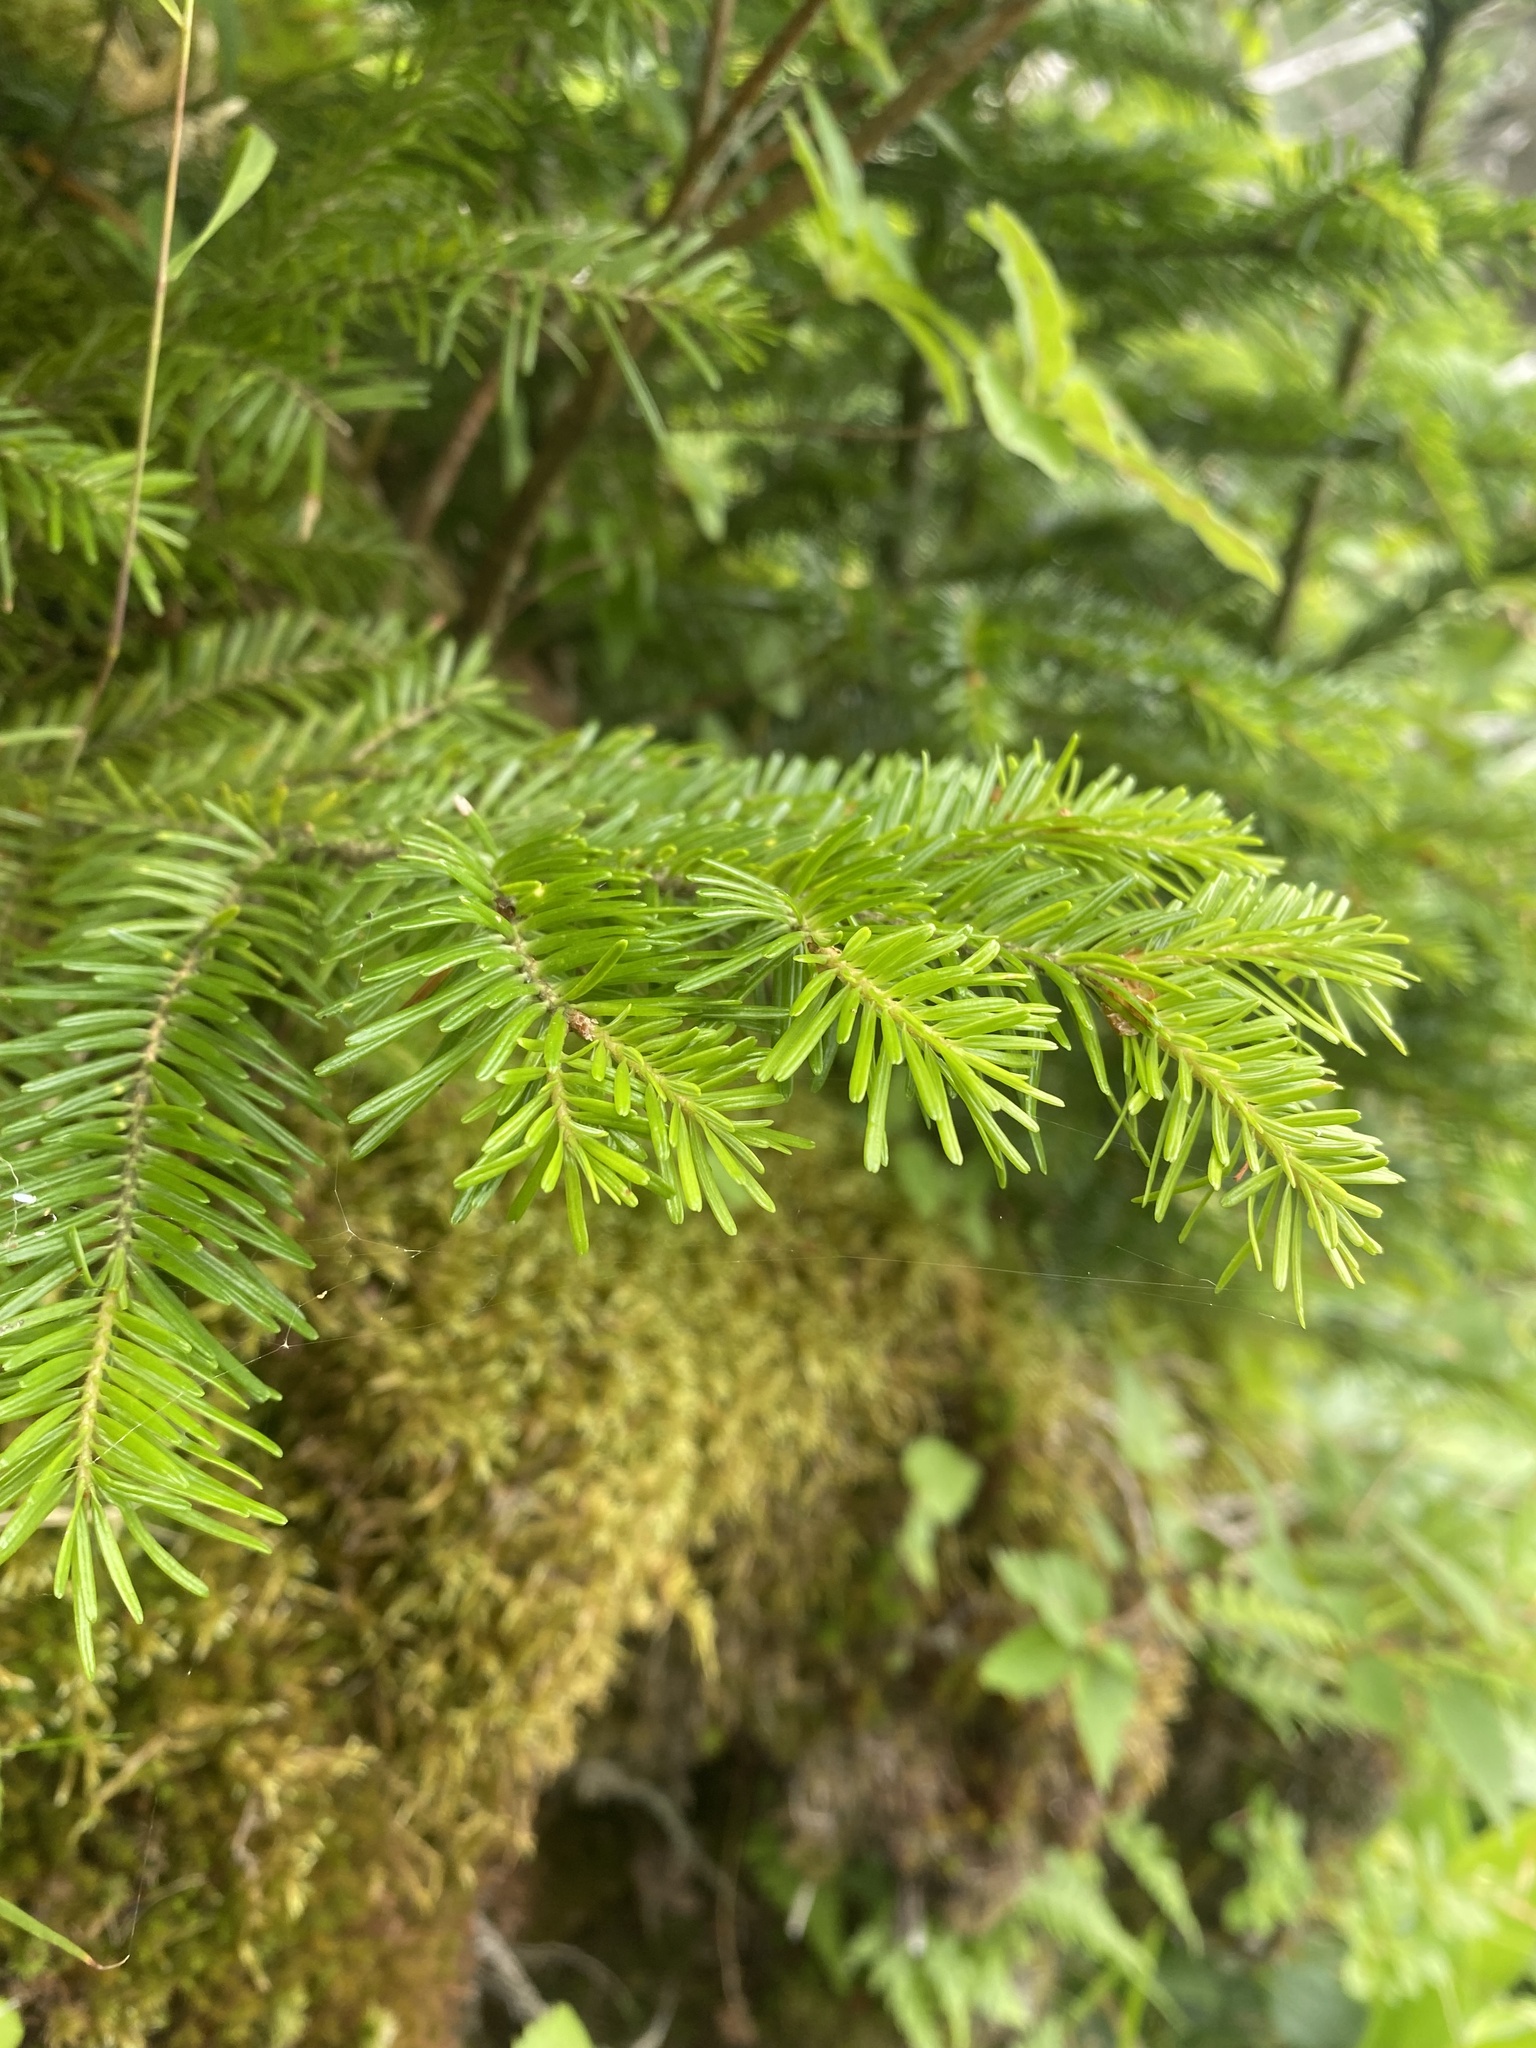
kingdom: Plantae
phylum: Tracheophyta
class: Pinopsida
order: Pinales
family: Pinaceae
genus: Abies
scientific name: Abies sachalinensis
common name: Sakhalin fir
